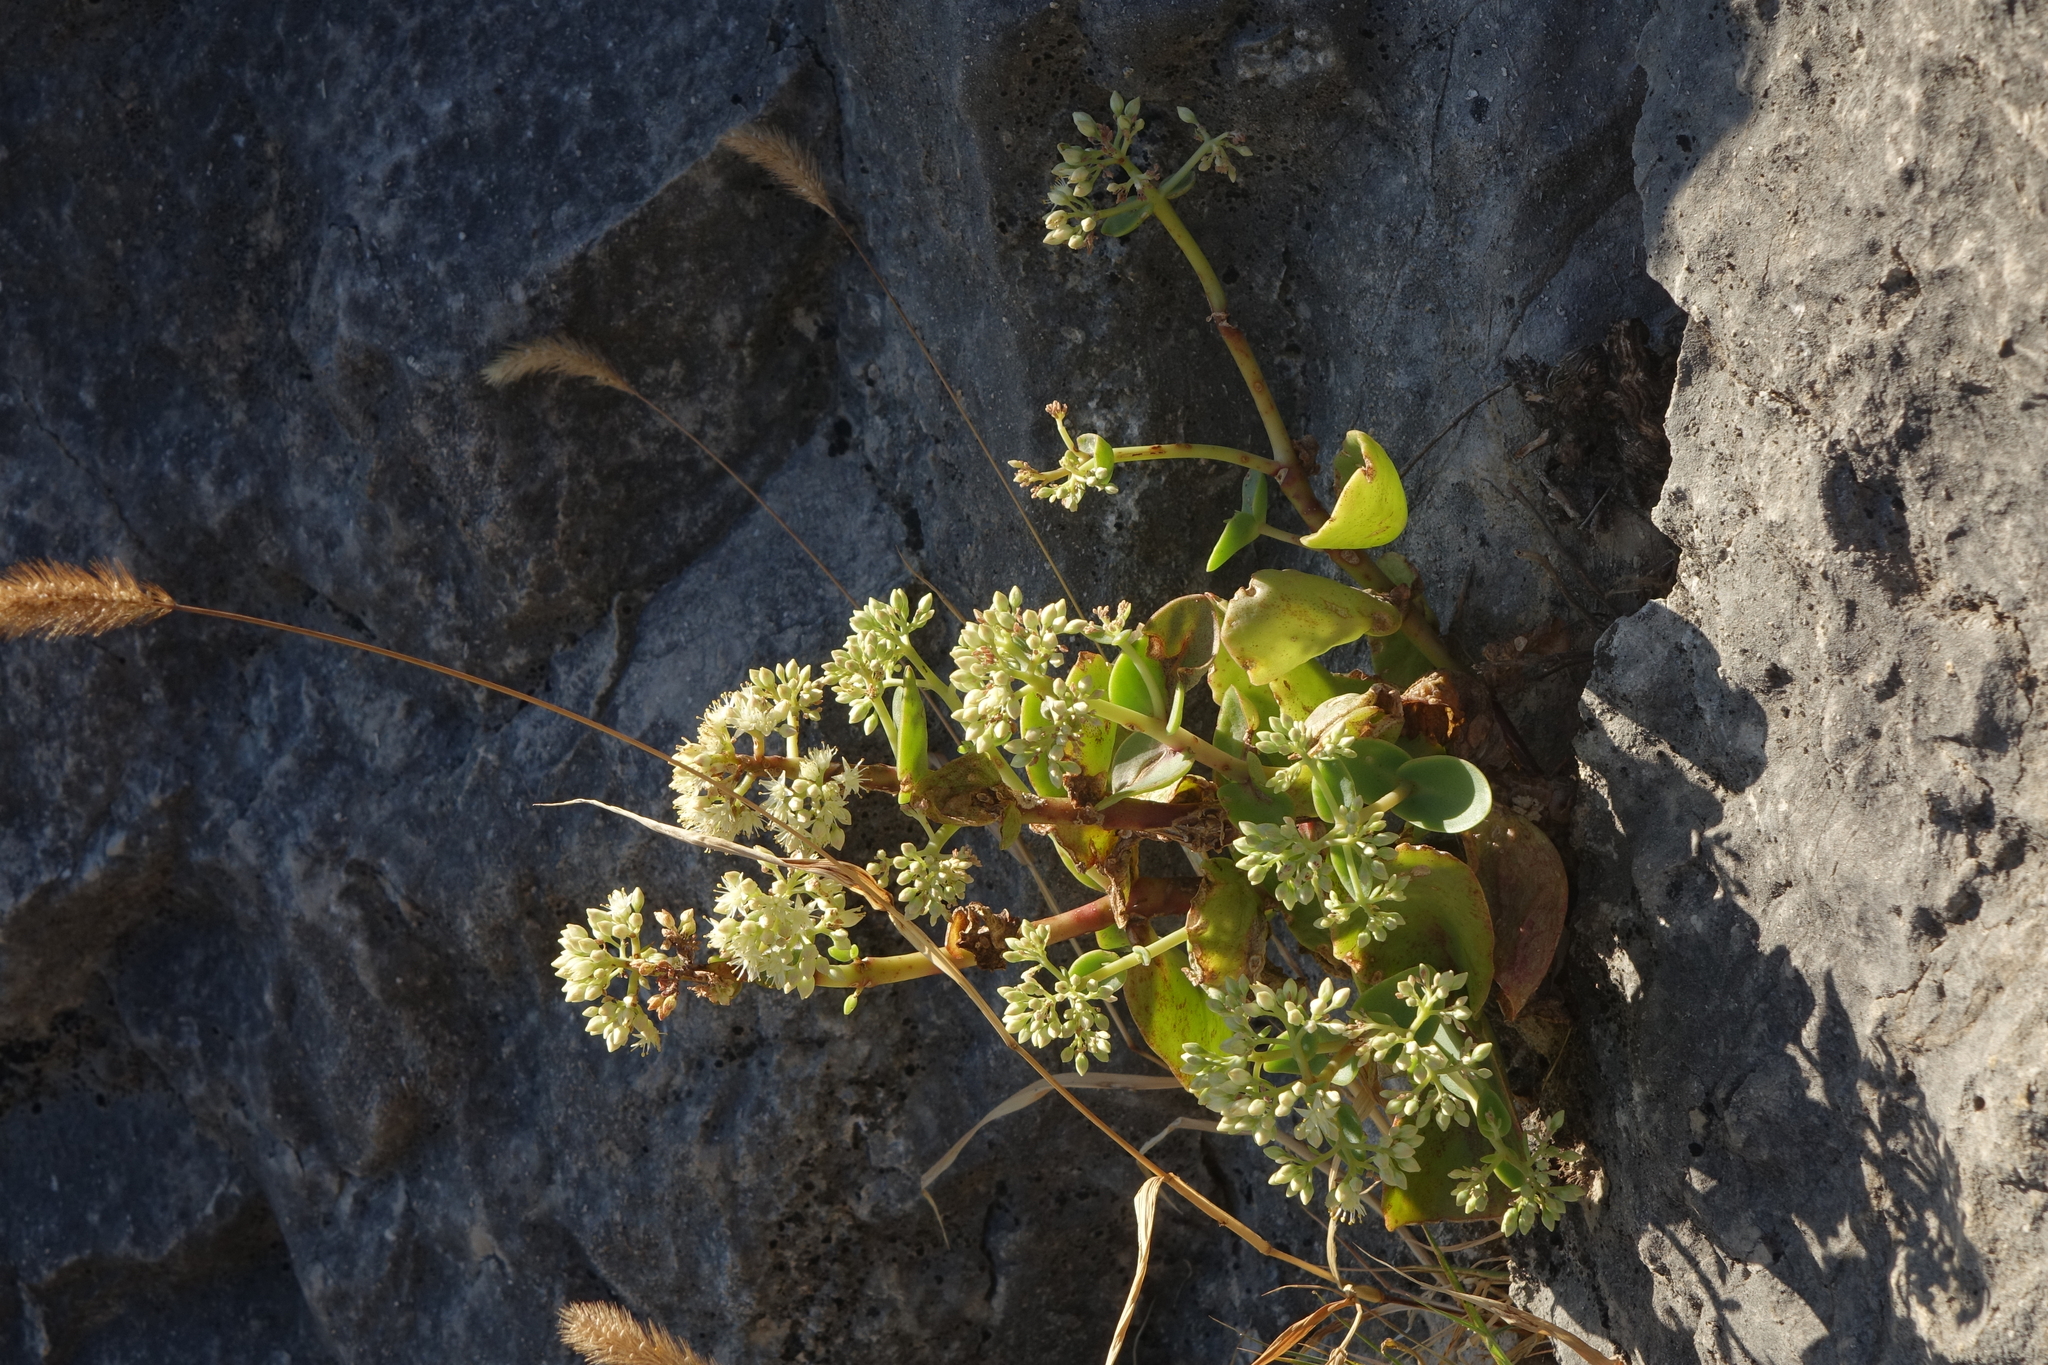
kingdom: Plantae
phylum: Tracheophyta
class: Magnoliopsida
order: Saxifragales
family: Crassulaceae
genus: Hylotelephium
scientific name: Hylotelephium maximum
